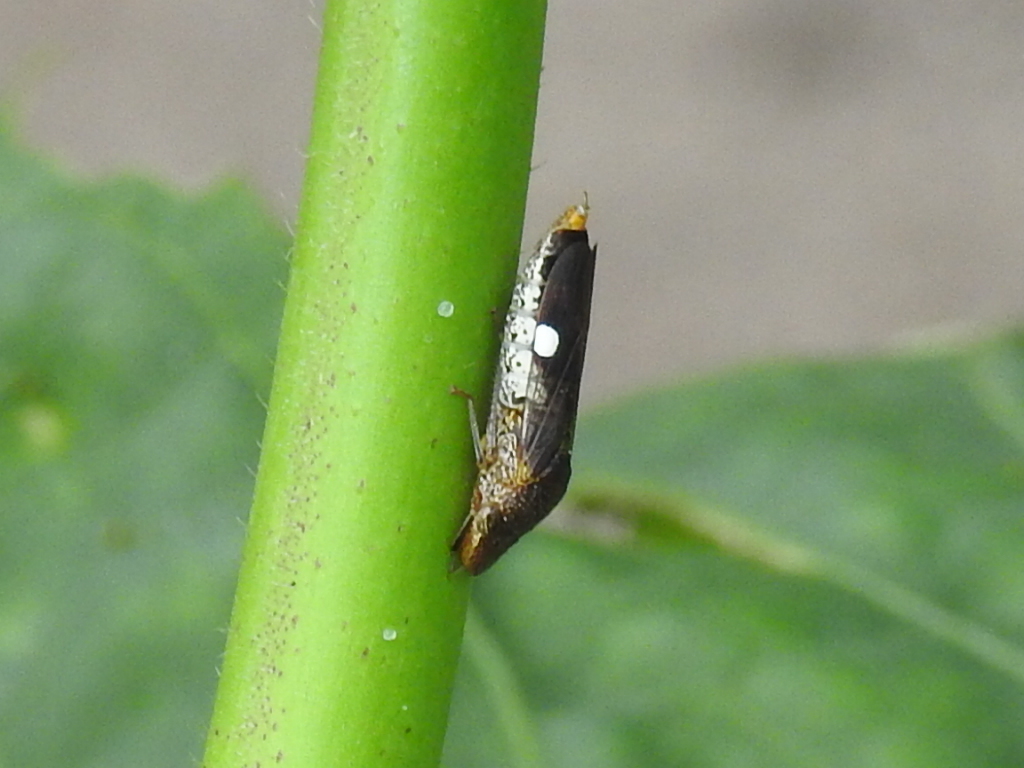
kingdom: Animalia
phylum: Arthropoda
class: Insecta
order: Hemiptera
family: Cicadellidae
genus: Homalodisca
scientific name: Homalodisca vitripennis
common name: Glassy-winged sharpshooter
